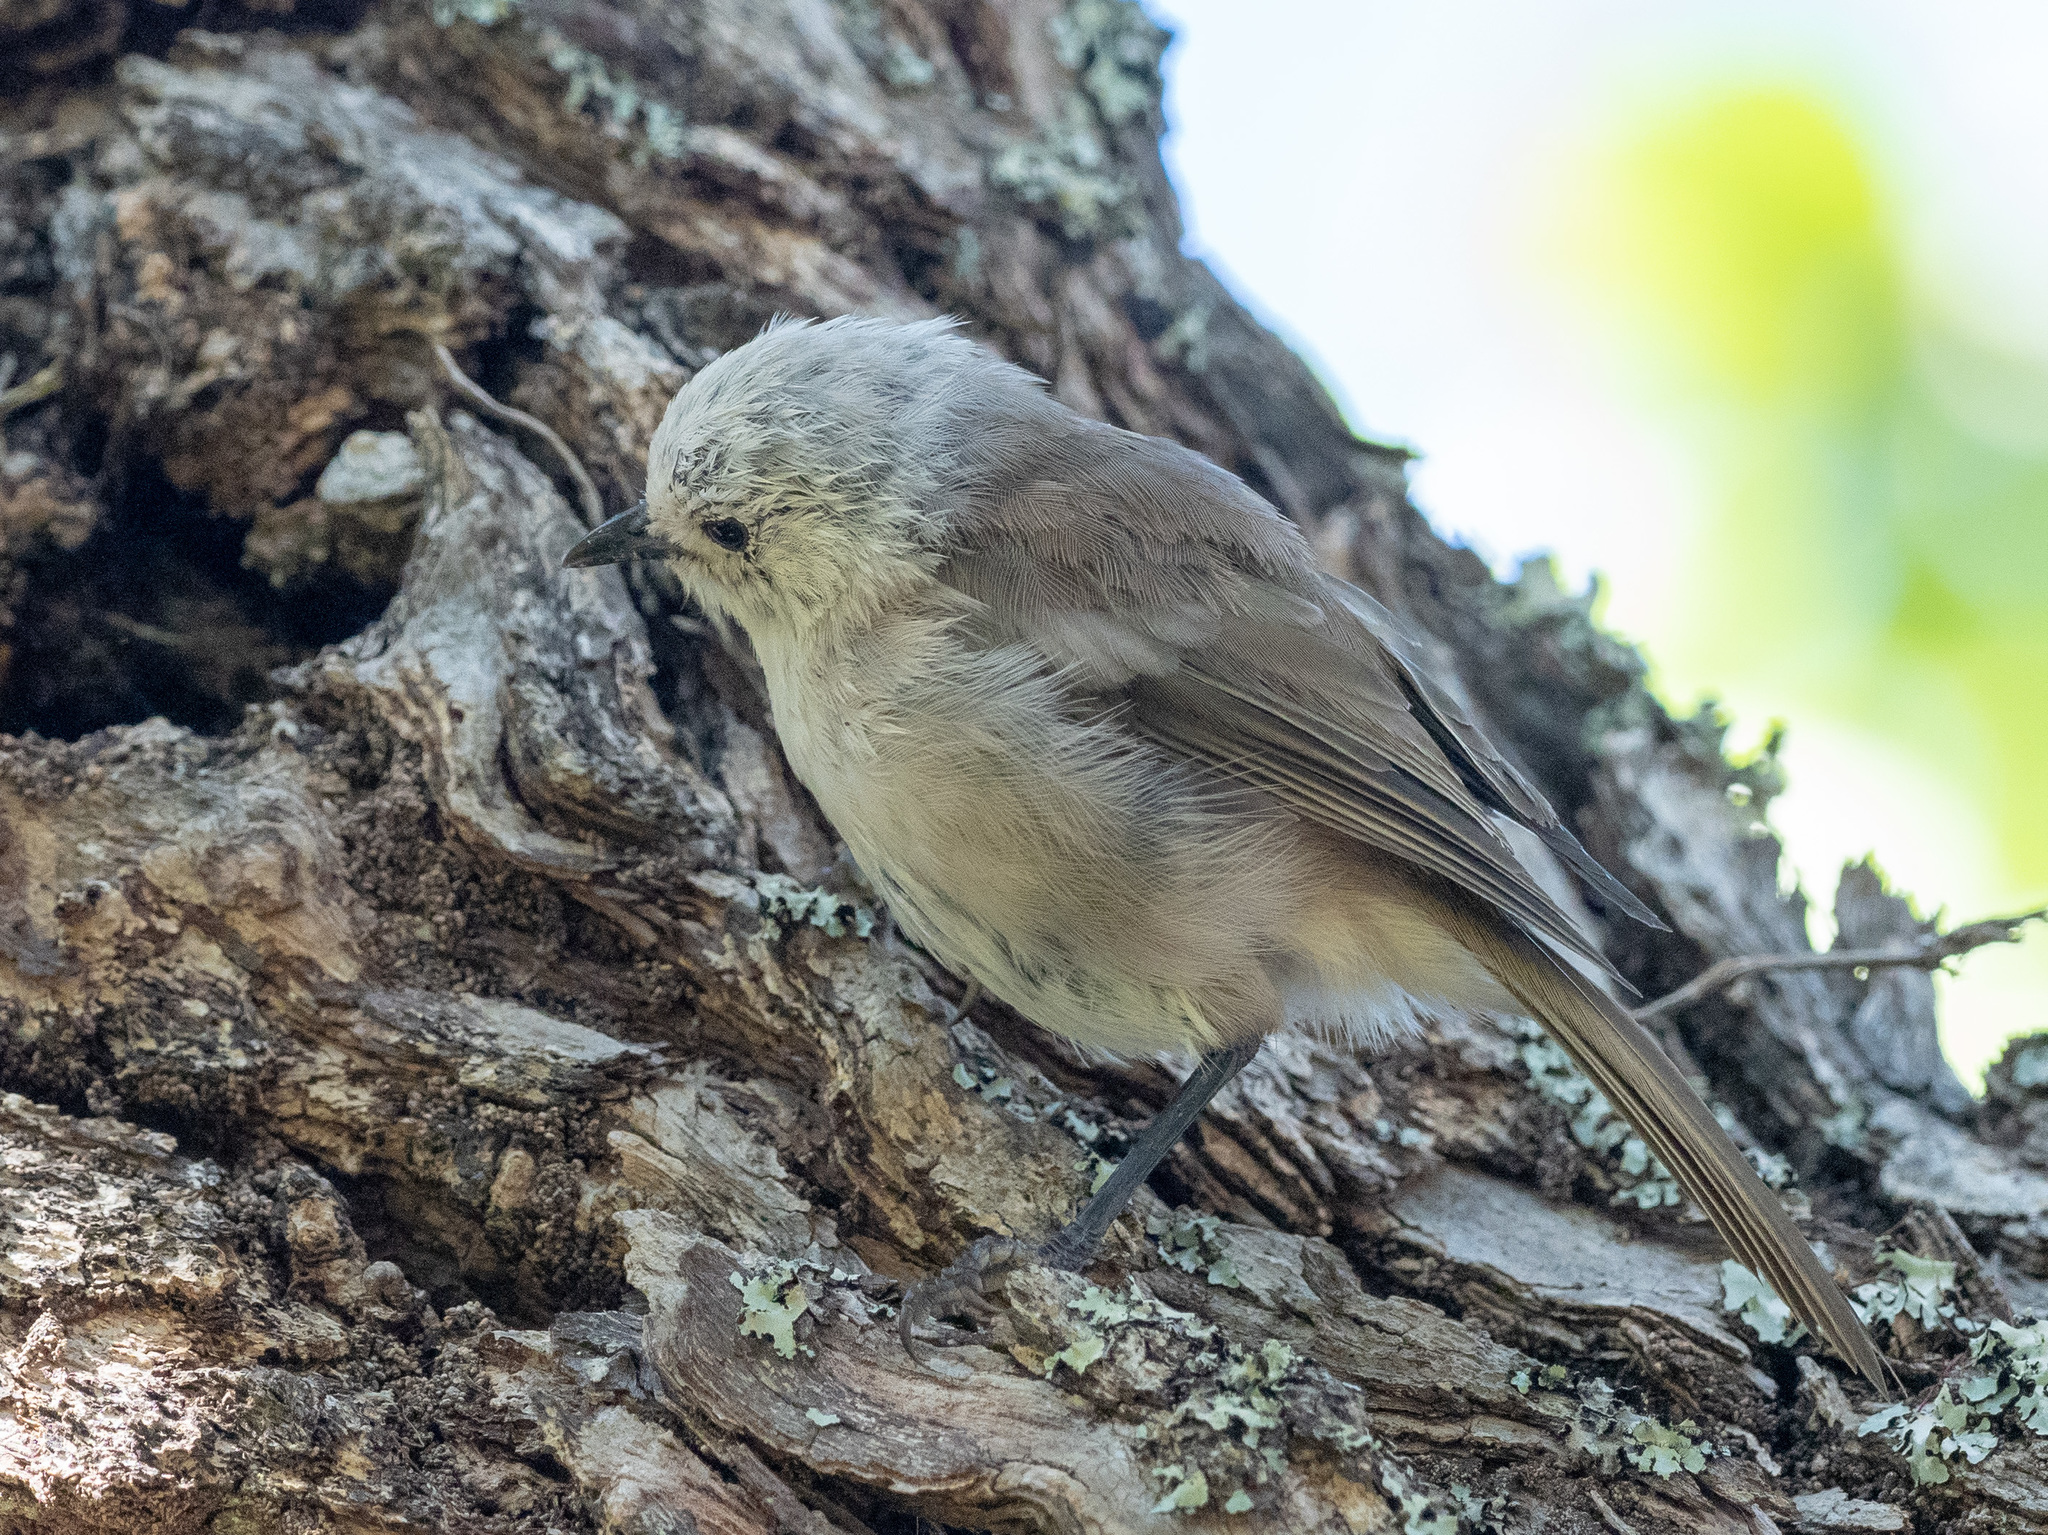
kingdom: Animalia
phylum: Chordata
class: Aves
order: Passeriformes
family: Acanthizidae
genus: Mohoua
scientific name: Mohoua albicilla
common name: Whitehead
